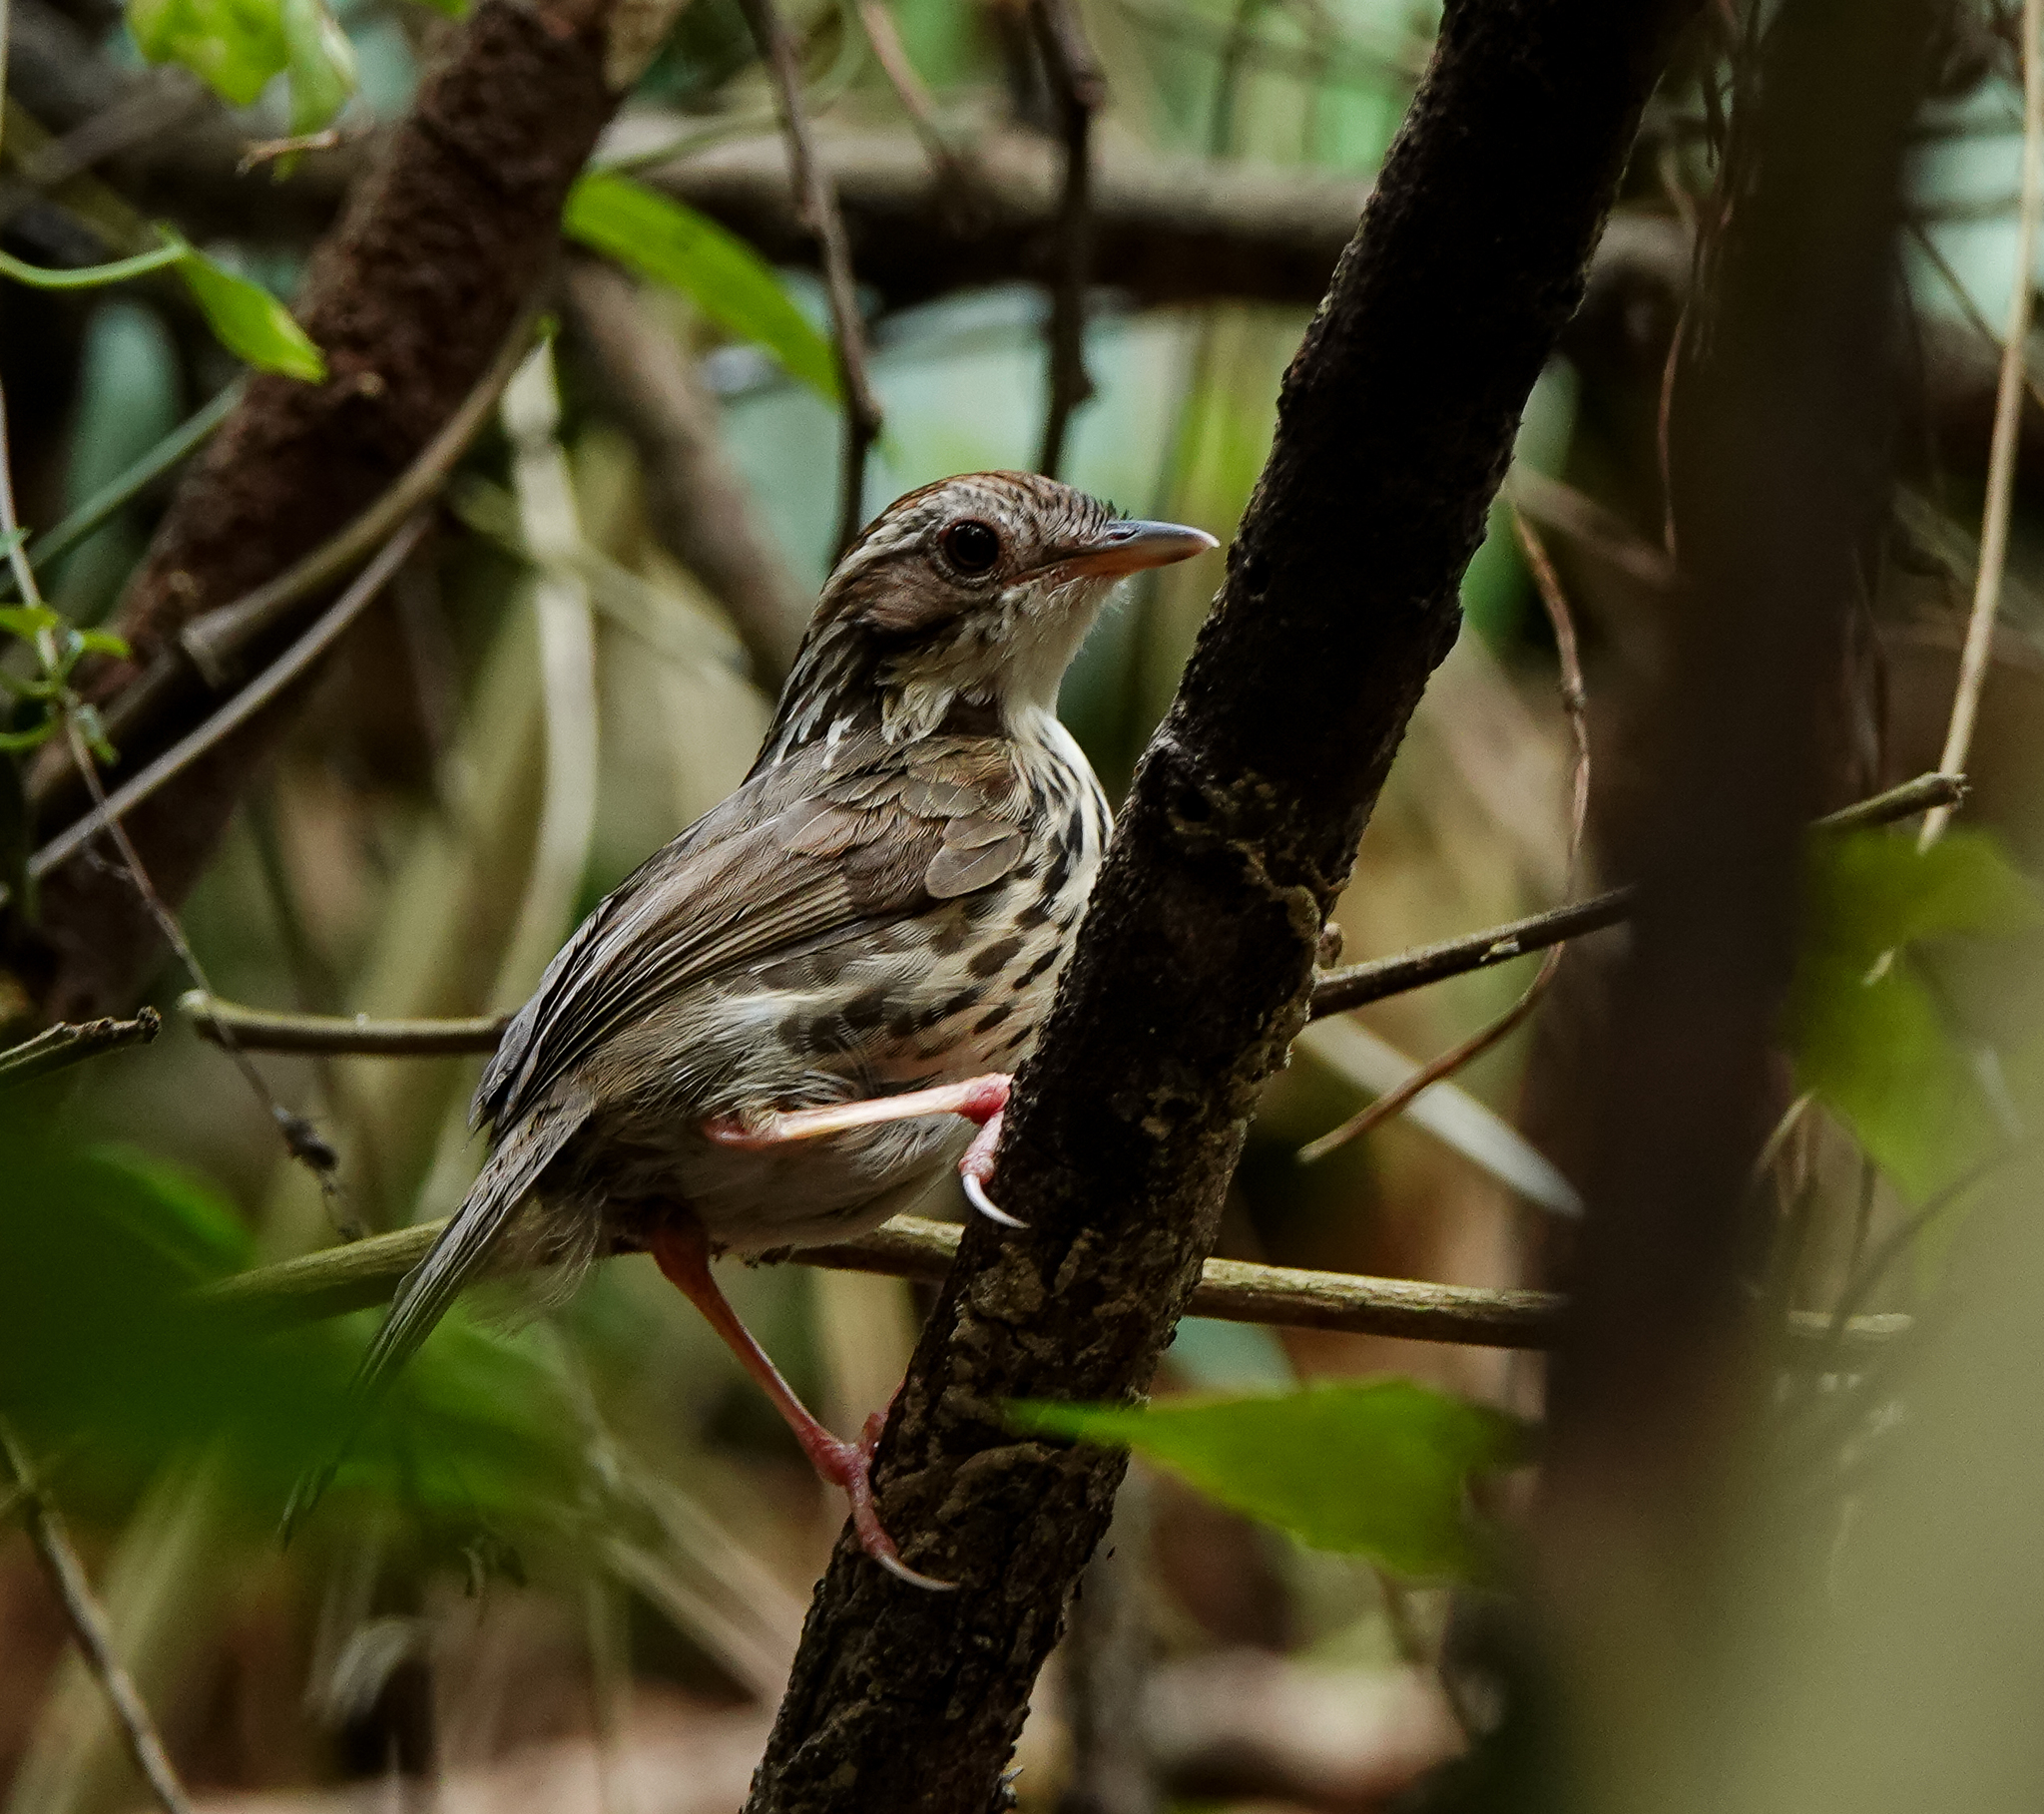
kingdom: Animalia
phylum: Chordata
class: Aves
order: Passeriformes
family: Pellorneidae
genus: Pellorneum
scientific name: Pellorneum ruficeps
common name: Puff-throated babbler
